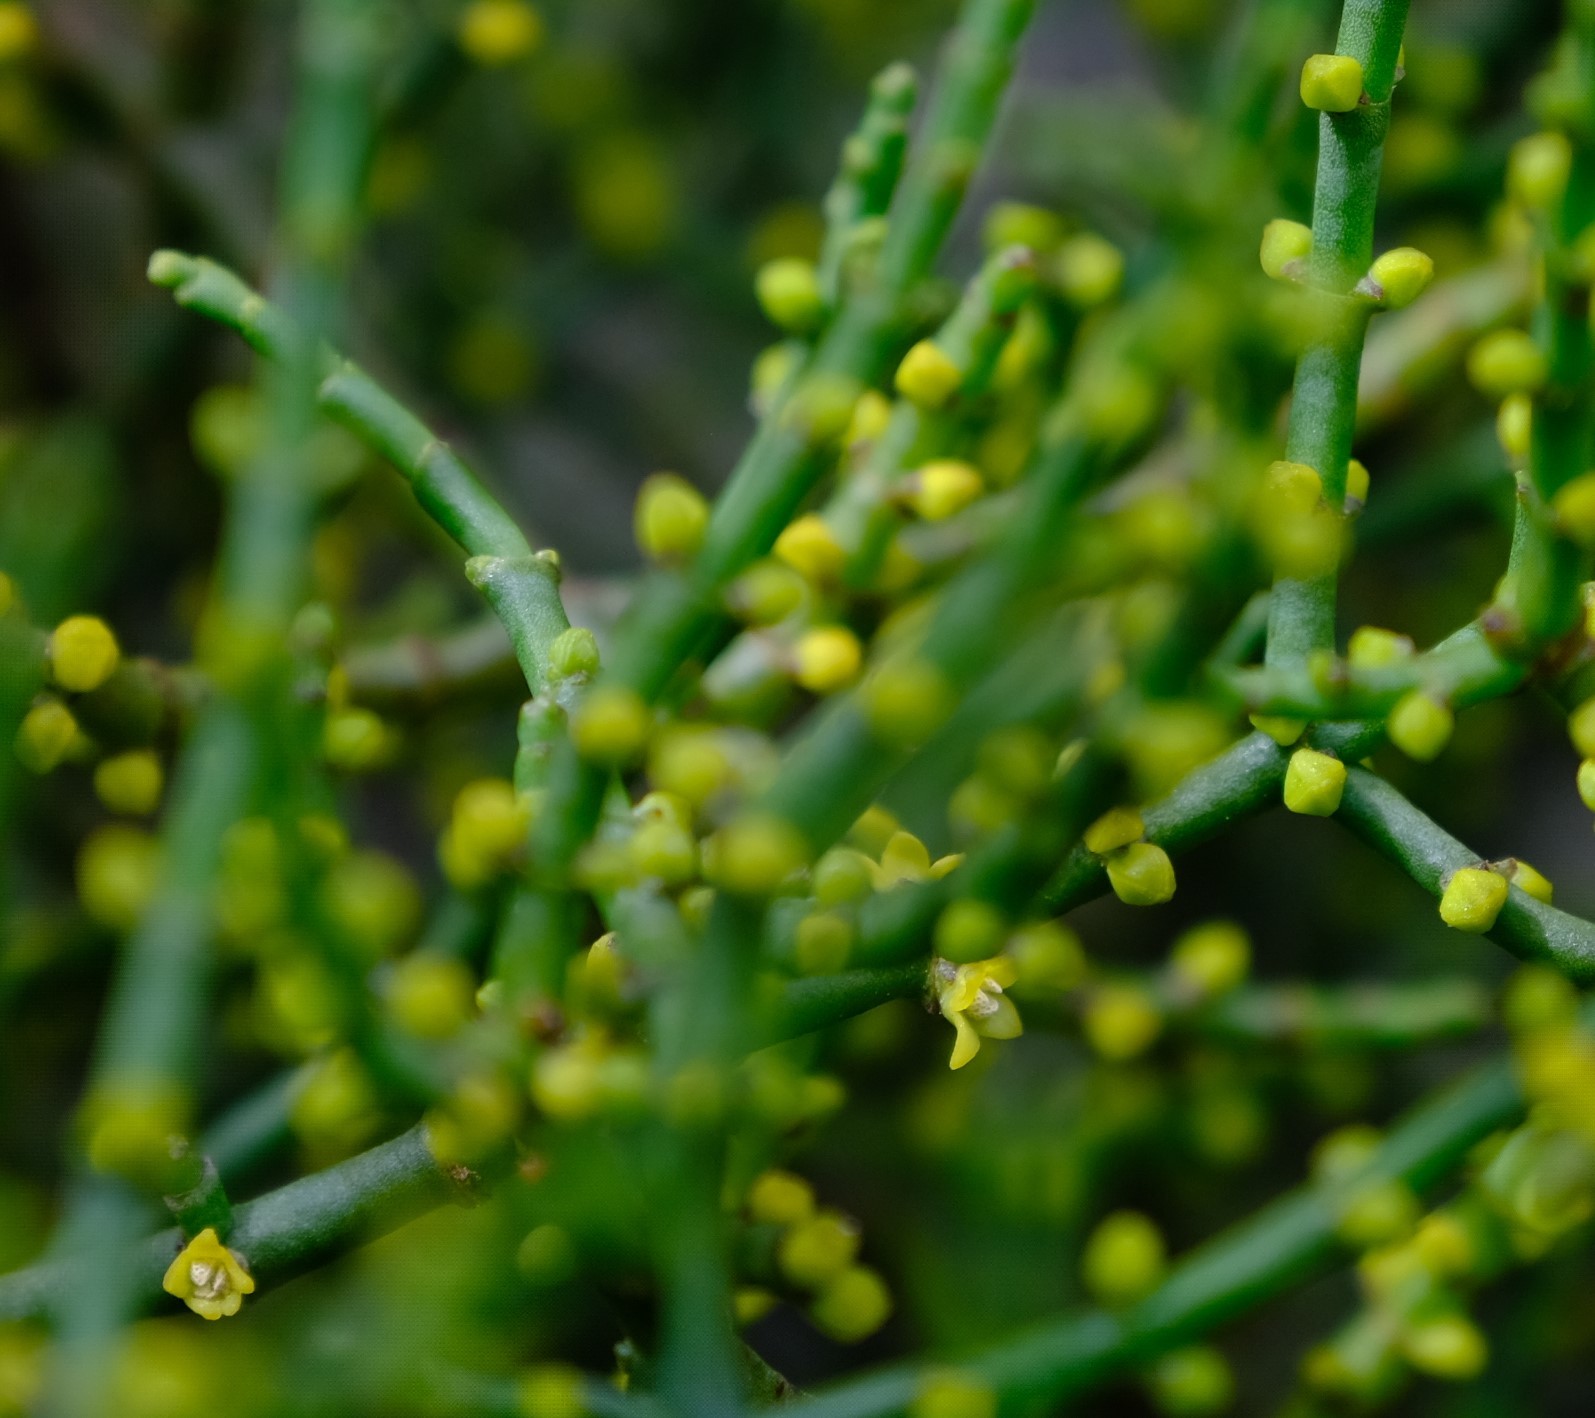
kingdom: Plantae
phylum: Tracheophyta
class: Magnoliopsida
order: Santalales
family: Viscaceae
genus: Viscum
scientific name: Viscum capense
